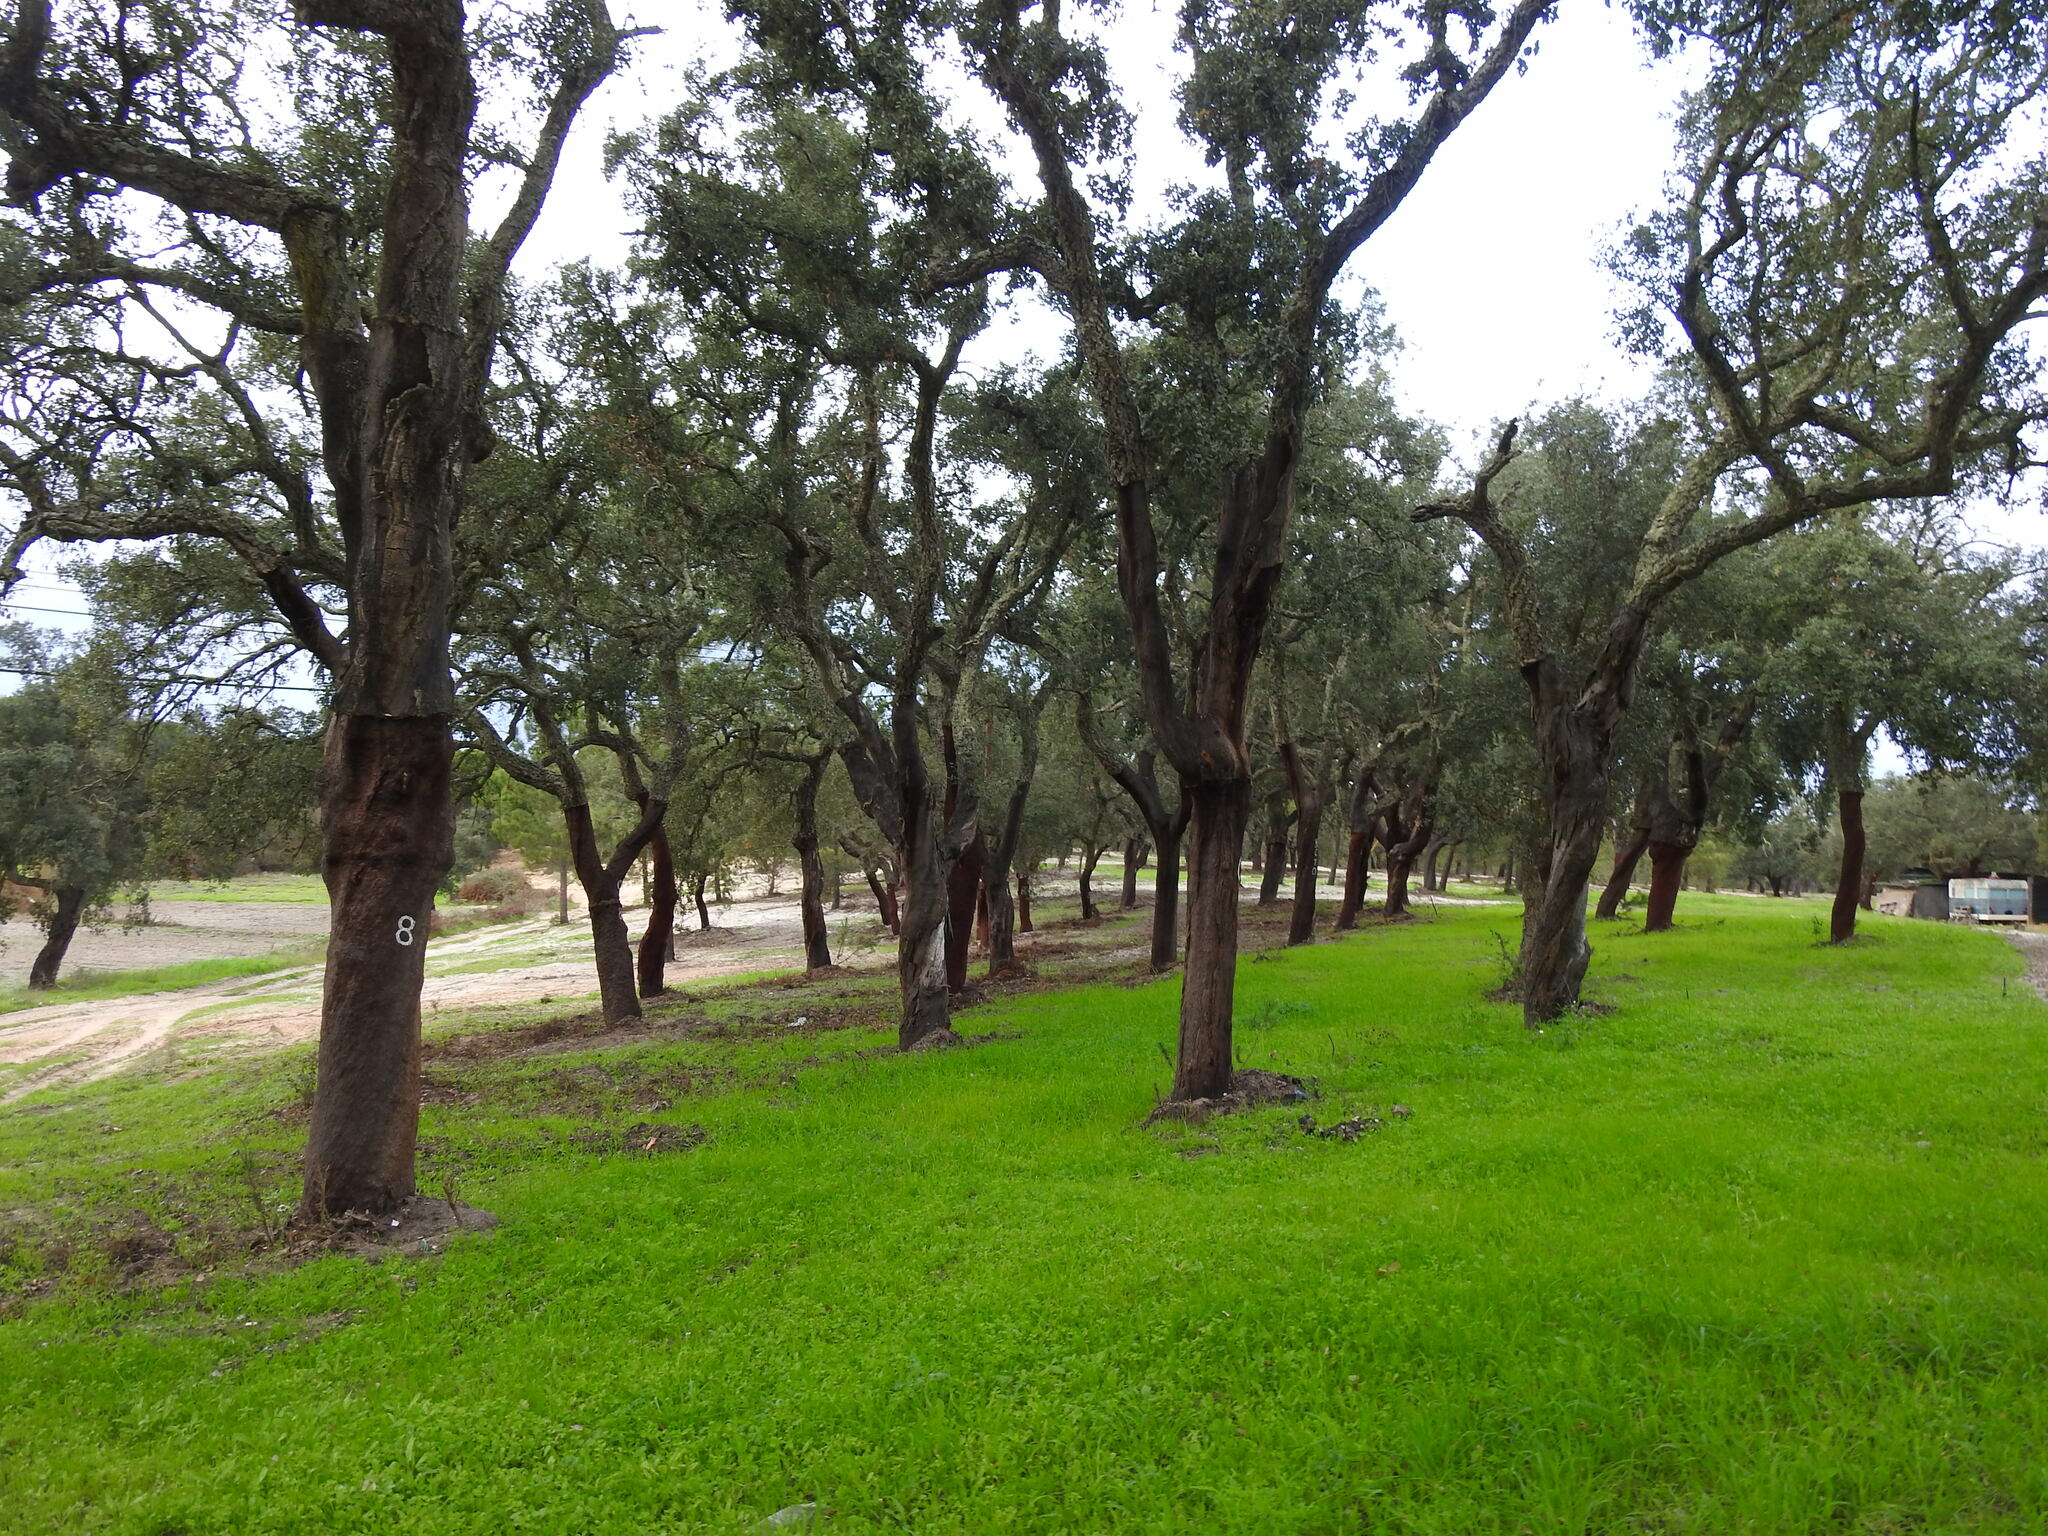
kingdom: Plantae
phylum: Tracheophyta
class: Magnoliopsida
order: Fagales
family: Fagaceae
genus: Quercus
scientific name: Quercus suber
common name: Cork oak
